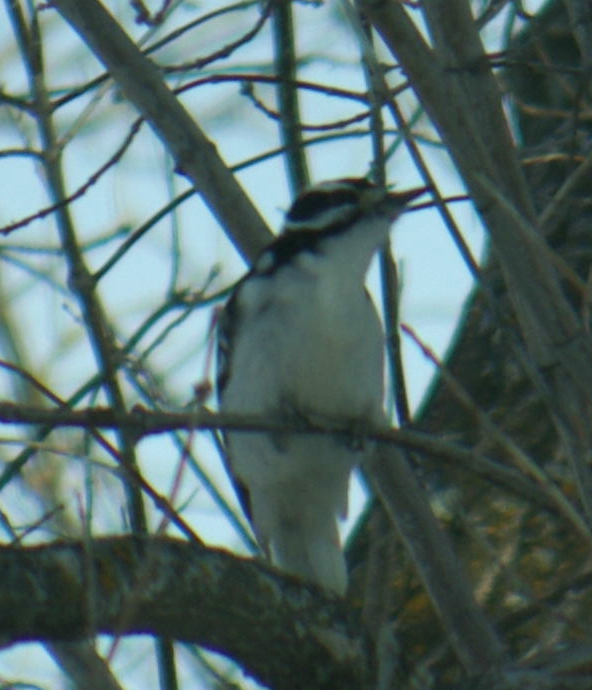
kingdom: Animalia
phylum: Chordata
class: Aves
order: Piciformes
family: Picidae
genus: Leuconotopicus
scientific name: Leuconotopicus villosus
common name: Hairy woodpecker
